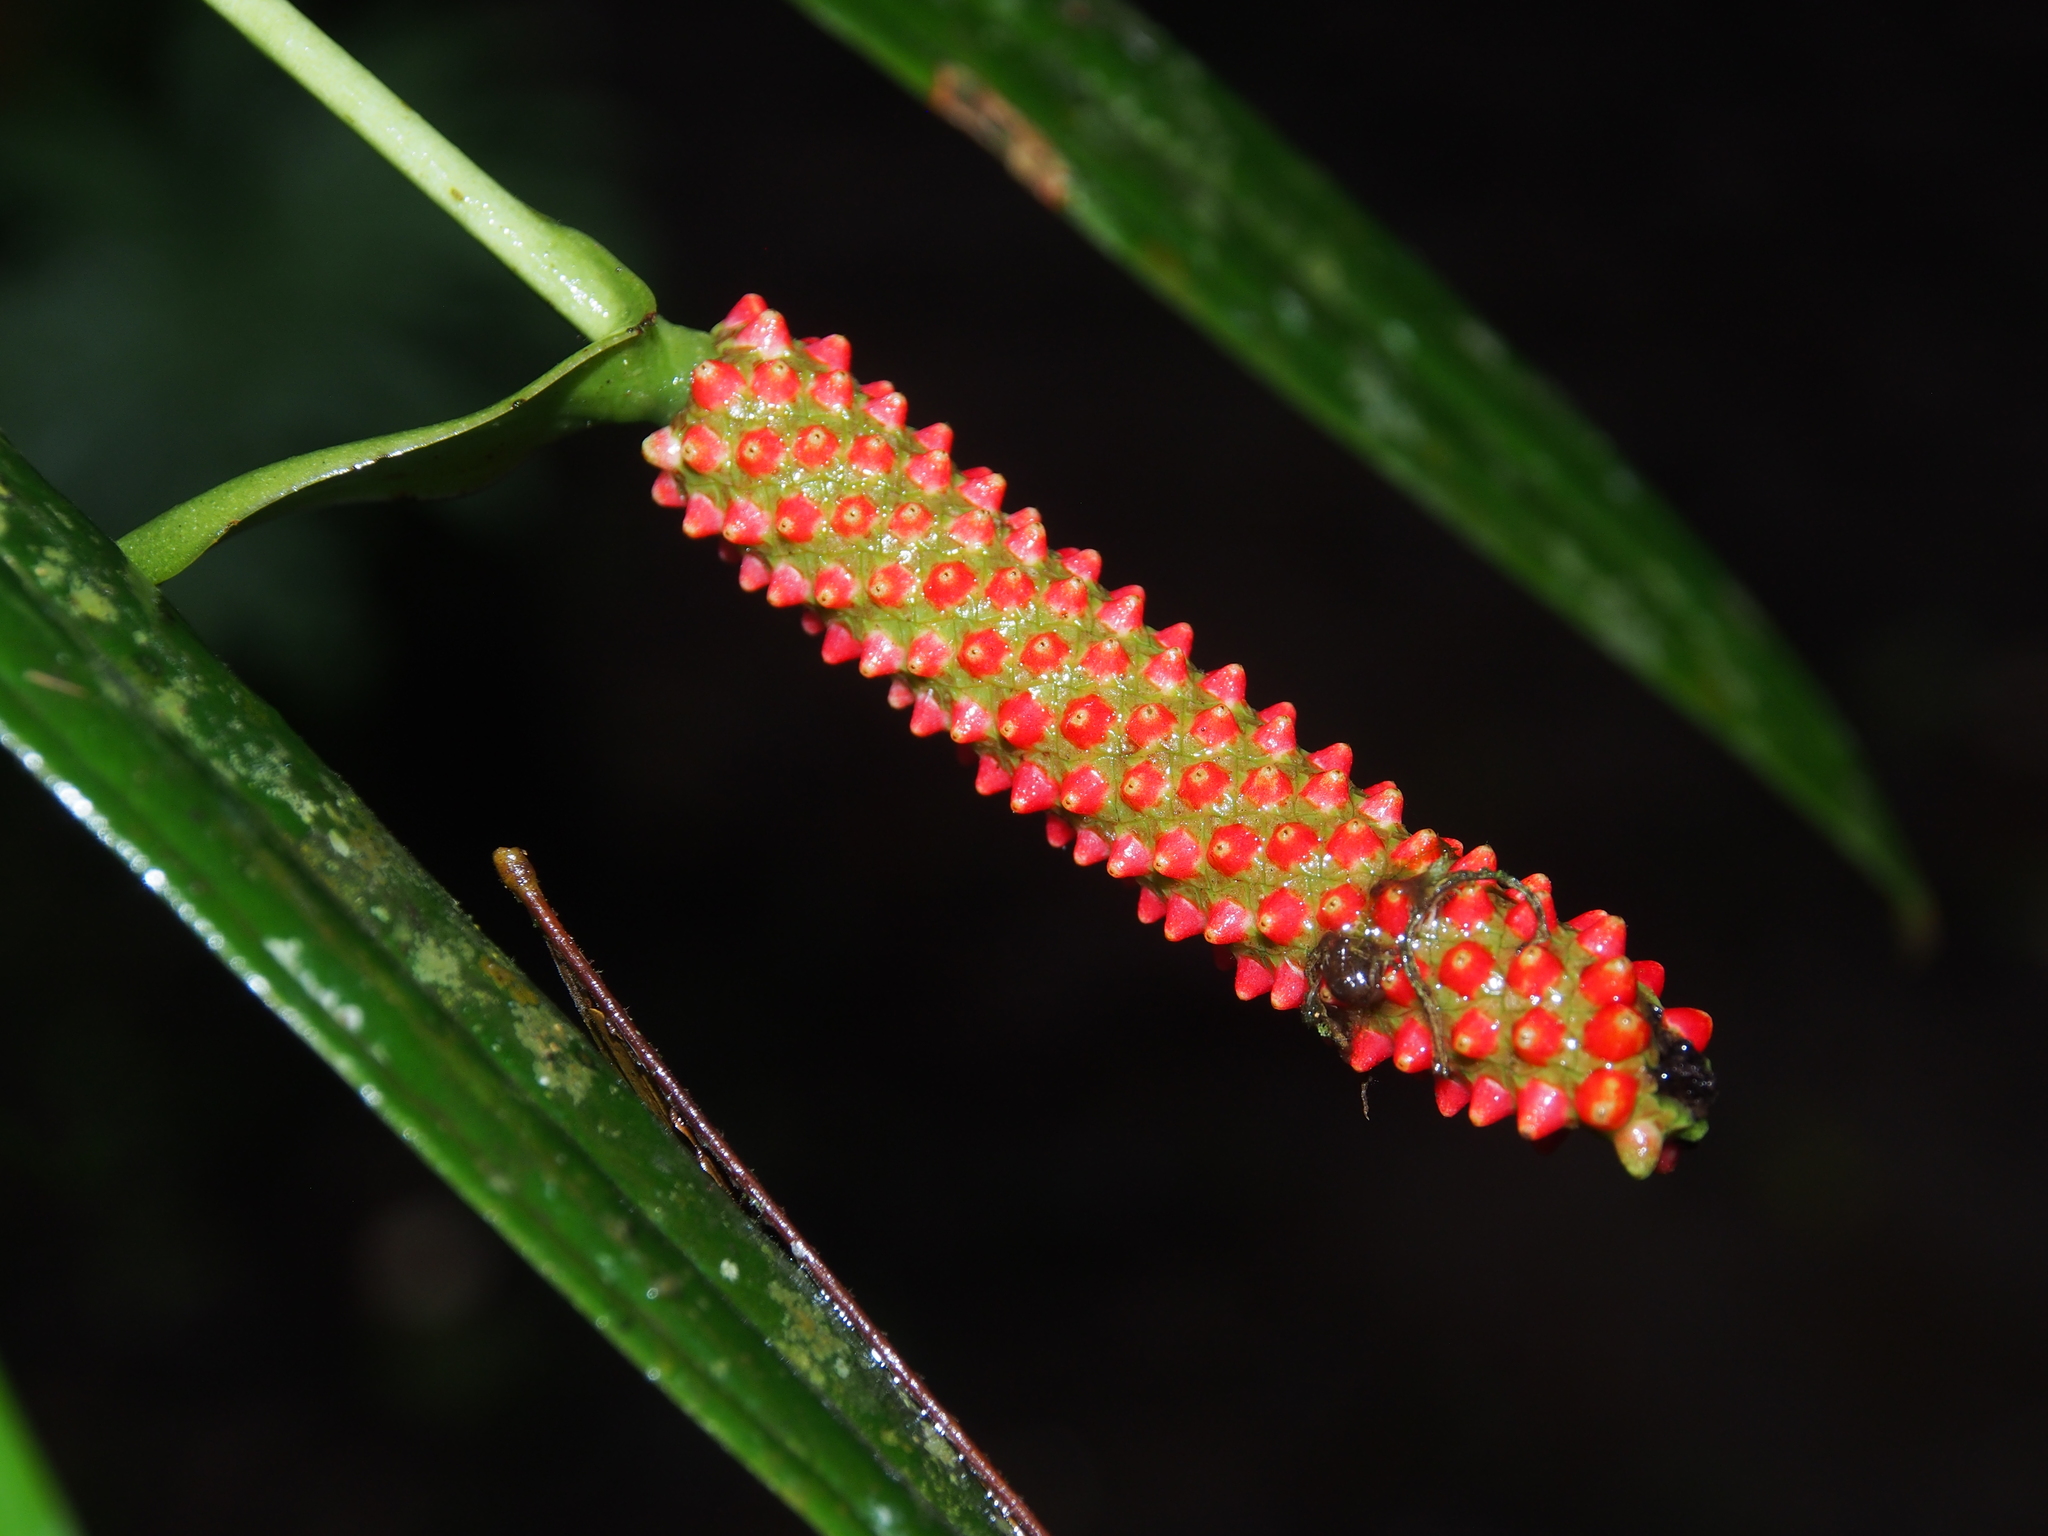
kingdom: Plantae
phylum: Tracheophyta
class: Liliopsida
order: Alismatales
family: Araceae
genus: Anthurium
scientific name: Anthurium bakeri
